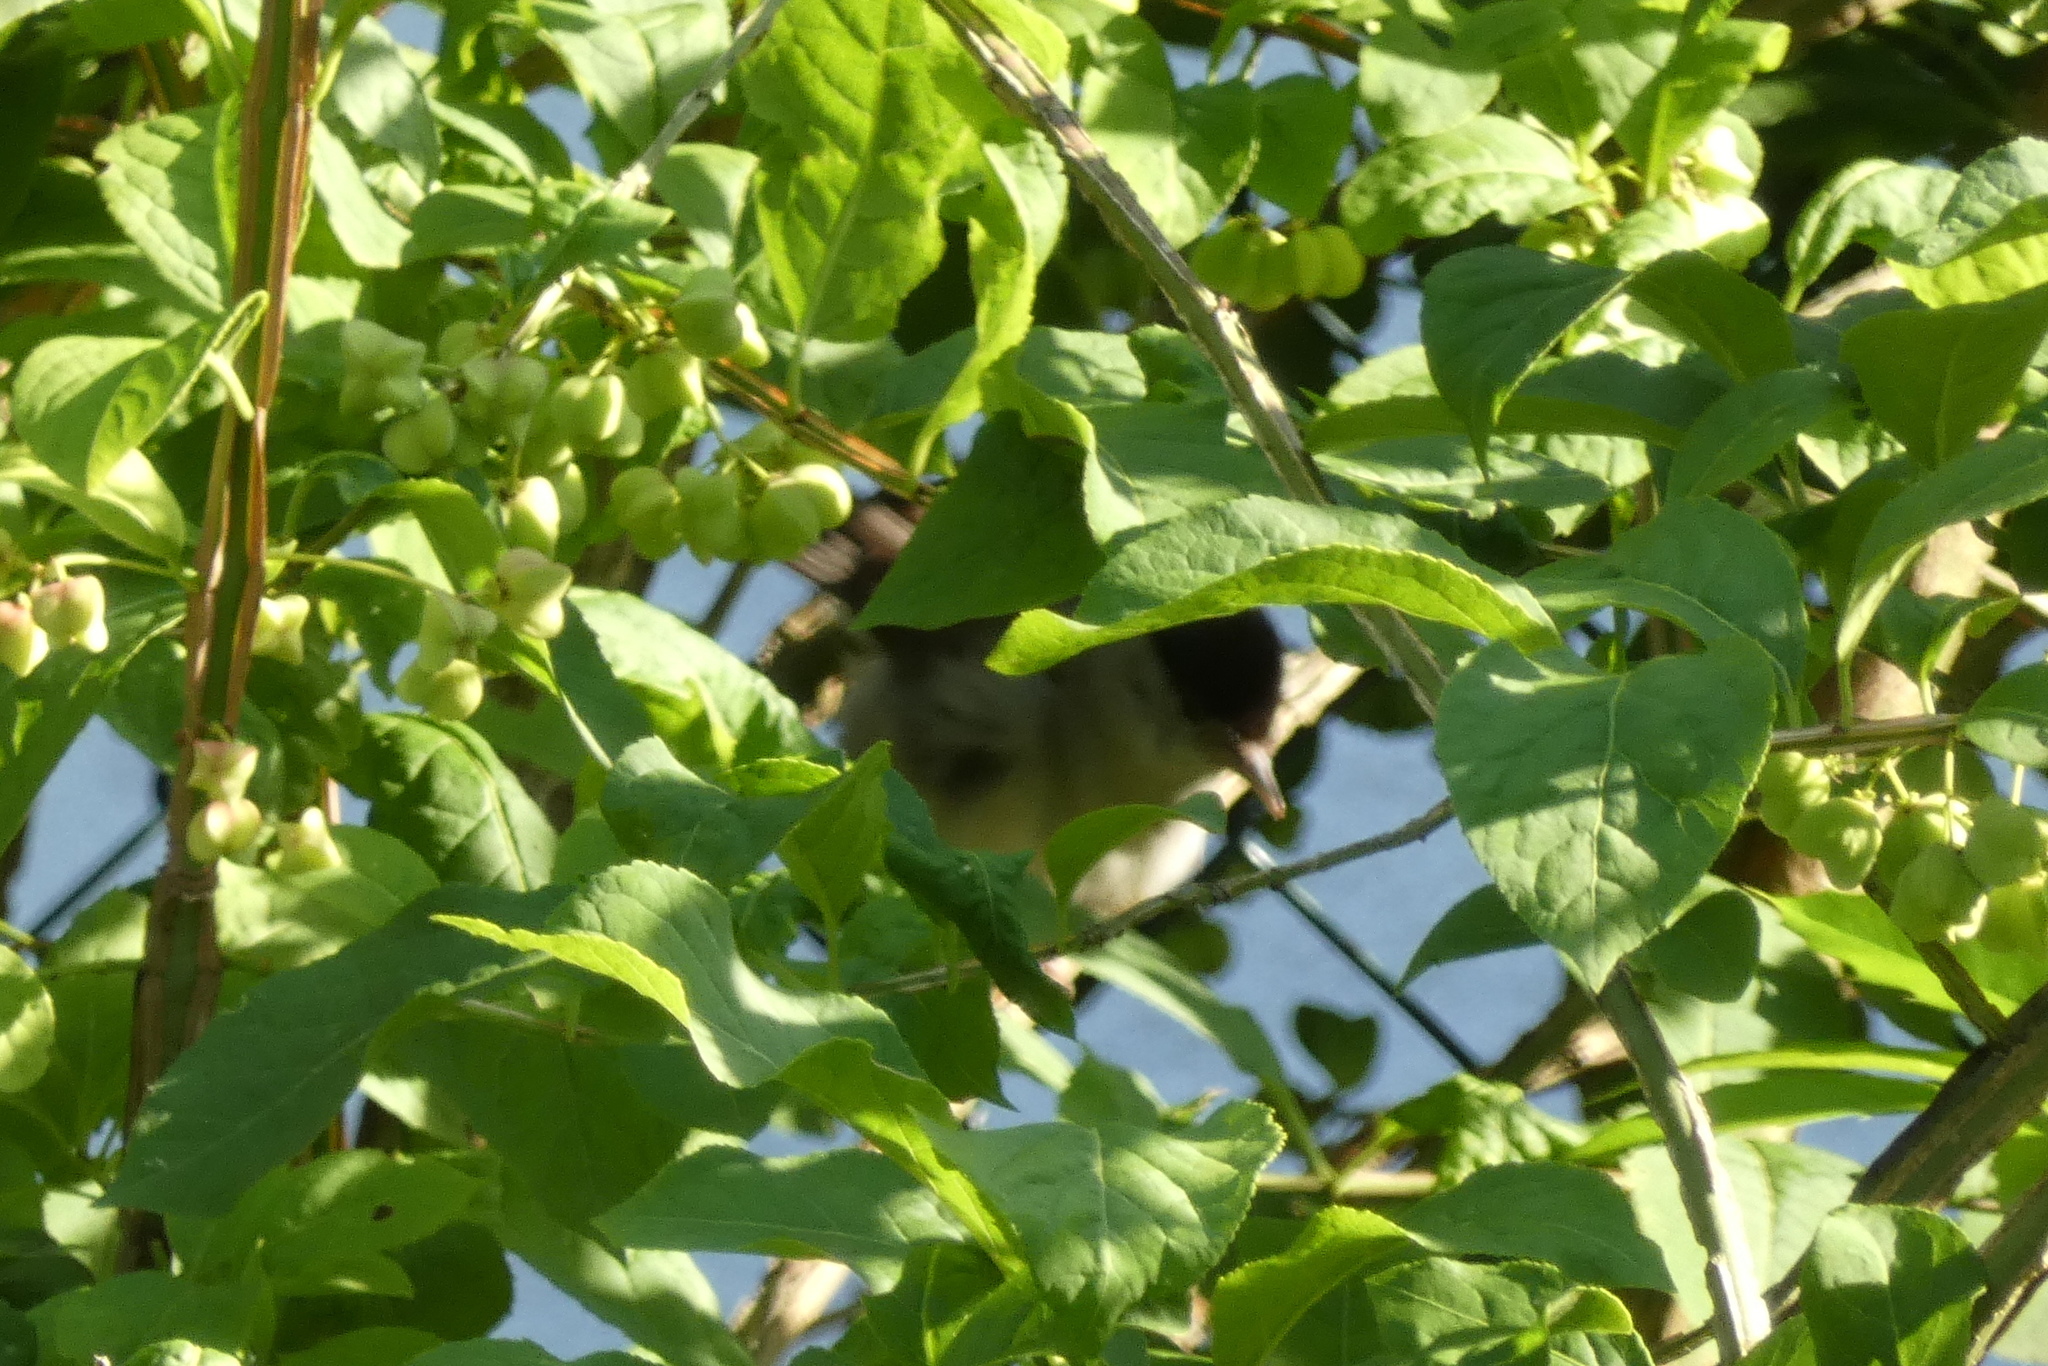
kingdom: Animalia
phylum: Chordata
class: Aves
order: Passeriformes
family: Sylviidae
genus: Sylvia
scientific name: Sylvia atricapilla
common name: Eurasian blackcap
